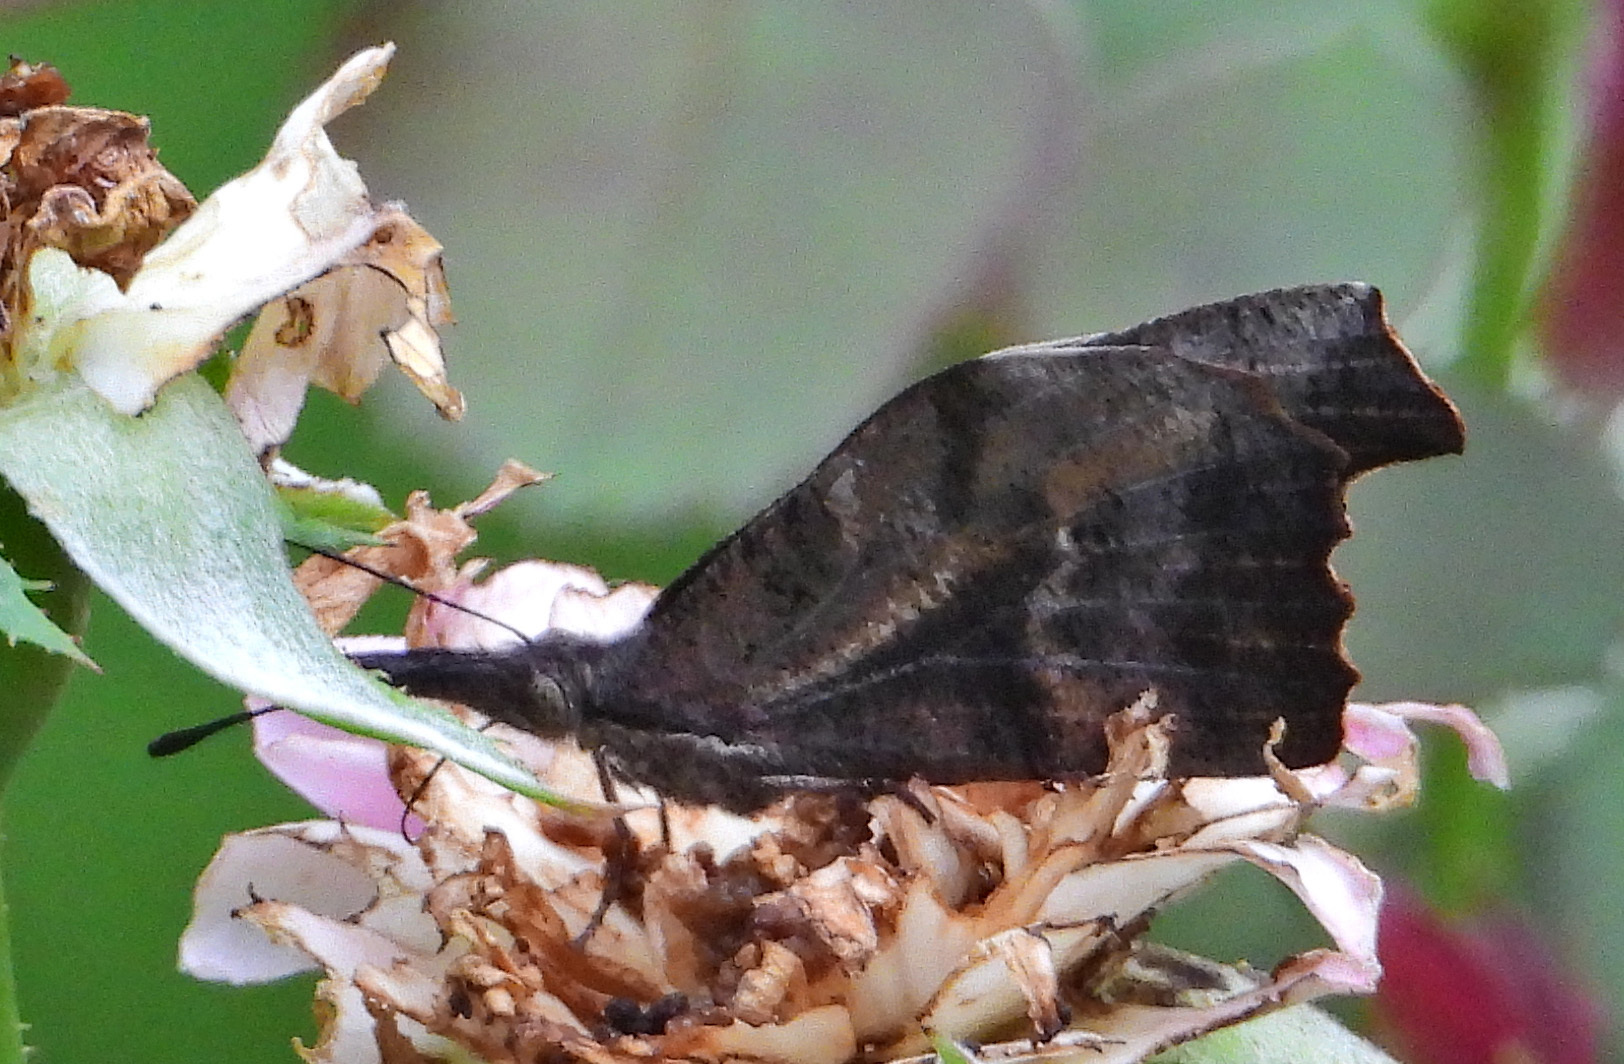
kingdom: Animalia
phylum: Arthropoda
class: Insecta
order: Lepidoptera
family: Nymphalidae
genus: Libytheana
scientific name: Libytheana carinenta
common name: American snout
